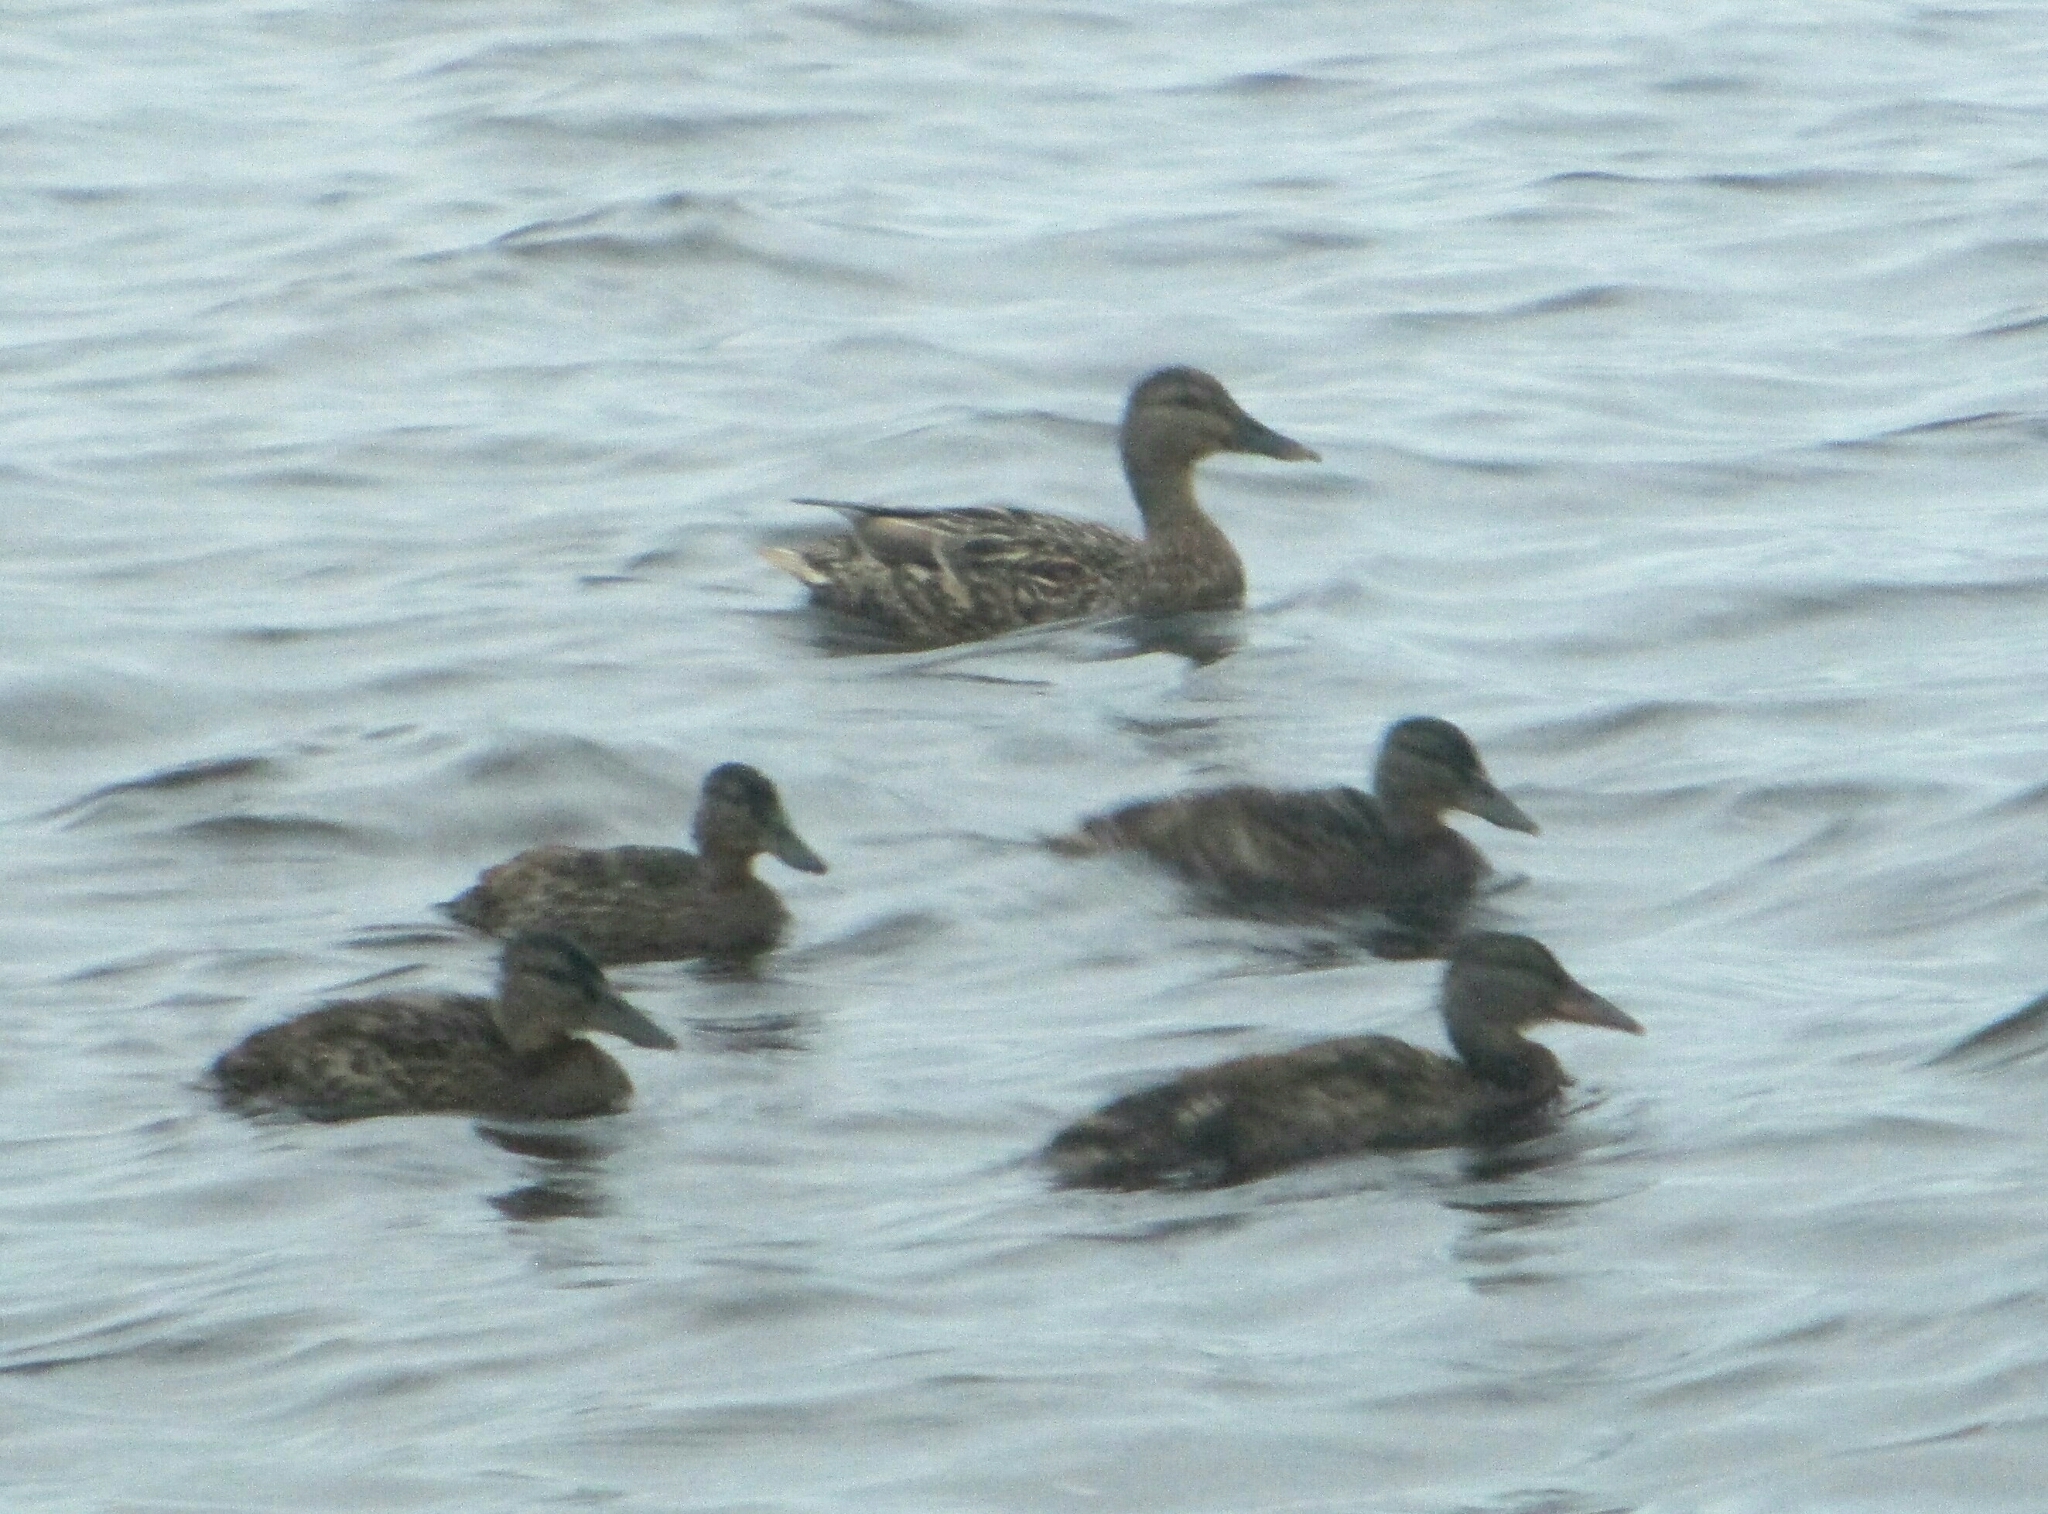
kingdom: Animalia
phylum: Chordata
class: Aves
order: Anseriformes
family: Anatidae
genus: Anas
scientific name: Anas platyrhynchos
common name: Mallard
